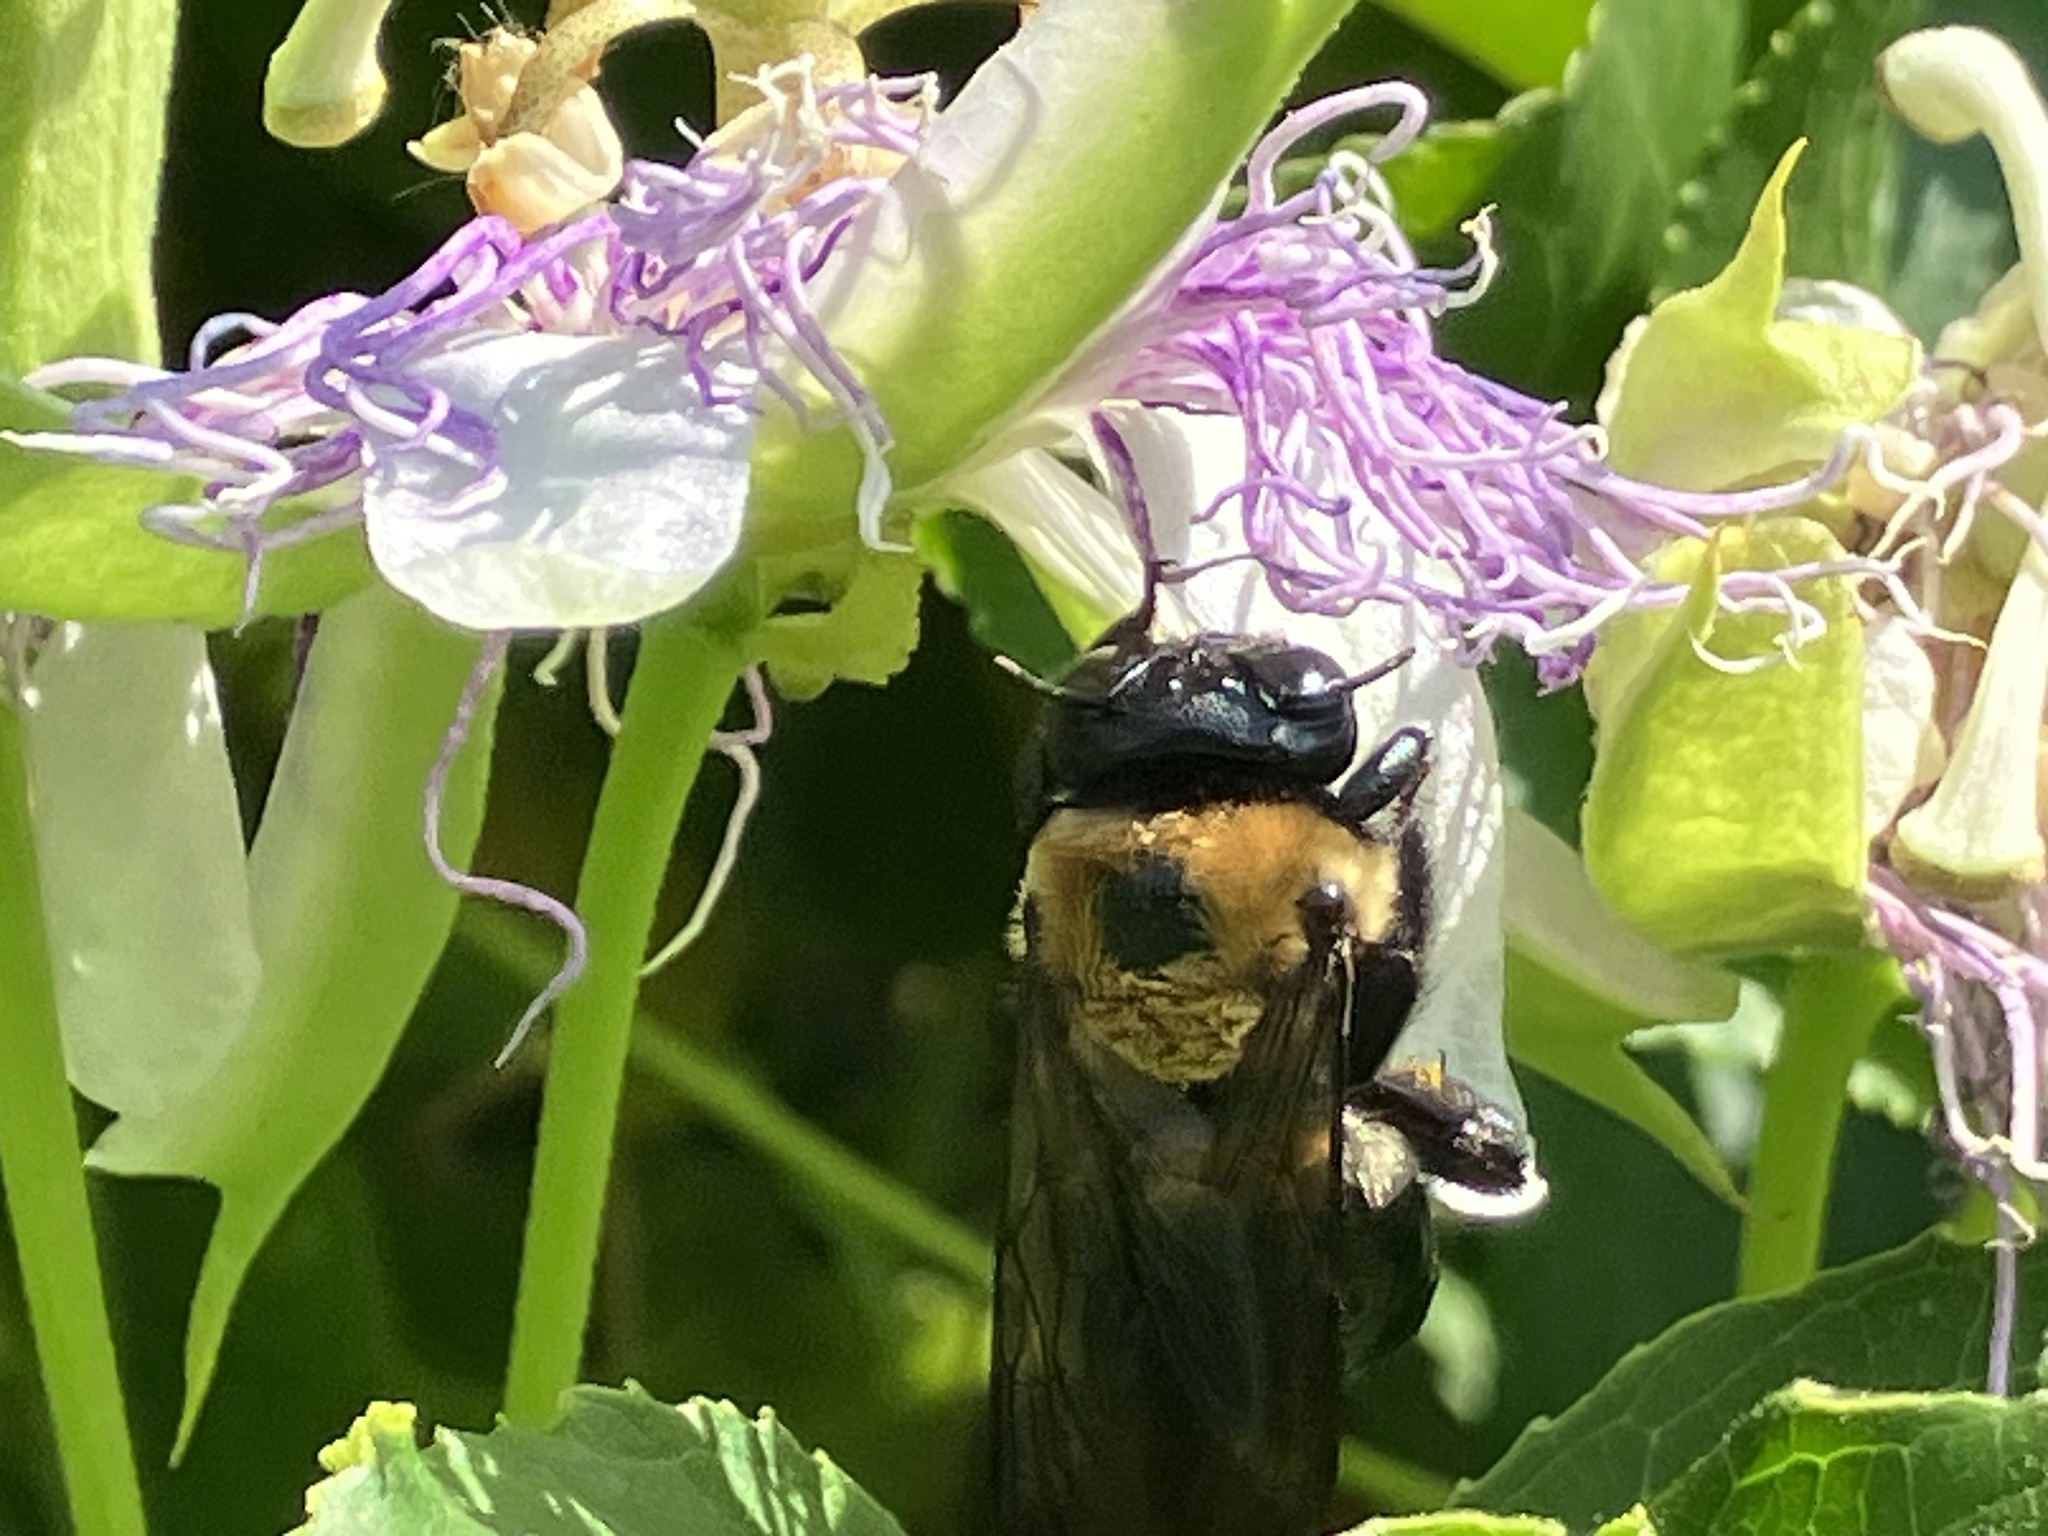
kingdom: Animalia
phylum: Arthropoda
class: Insecta
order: Hymenoptera
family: Apidae
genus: Xylocopa
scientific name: Xylocopa virginica
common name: Carpenter bee
